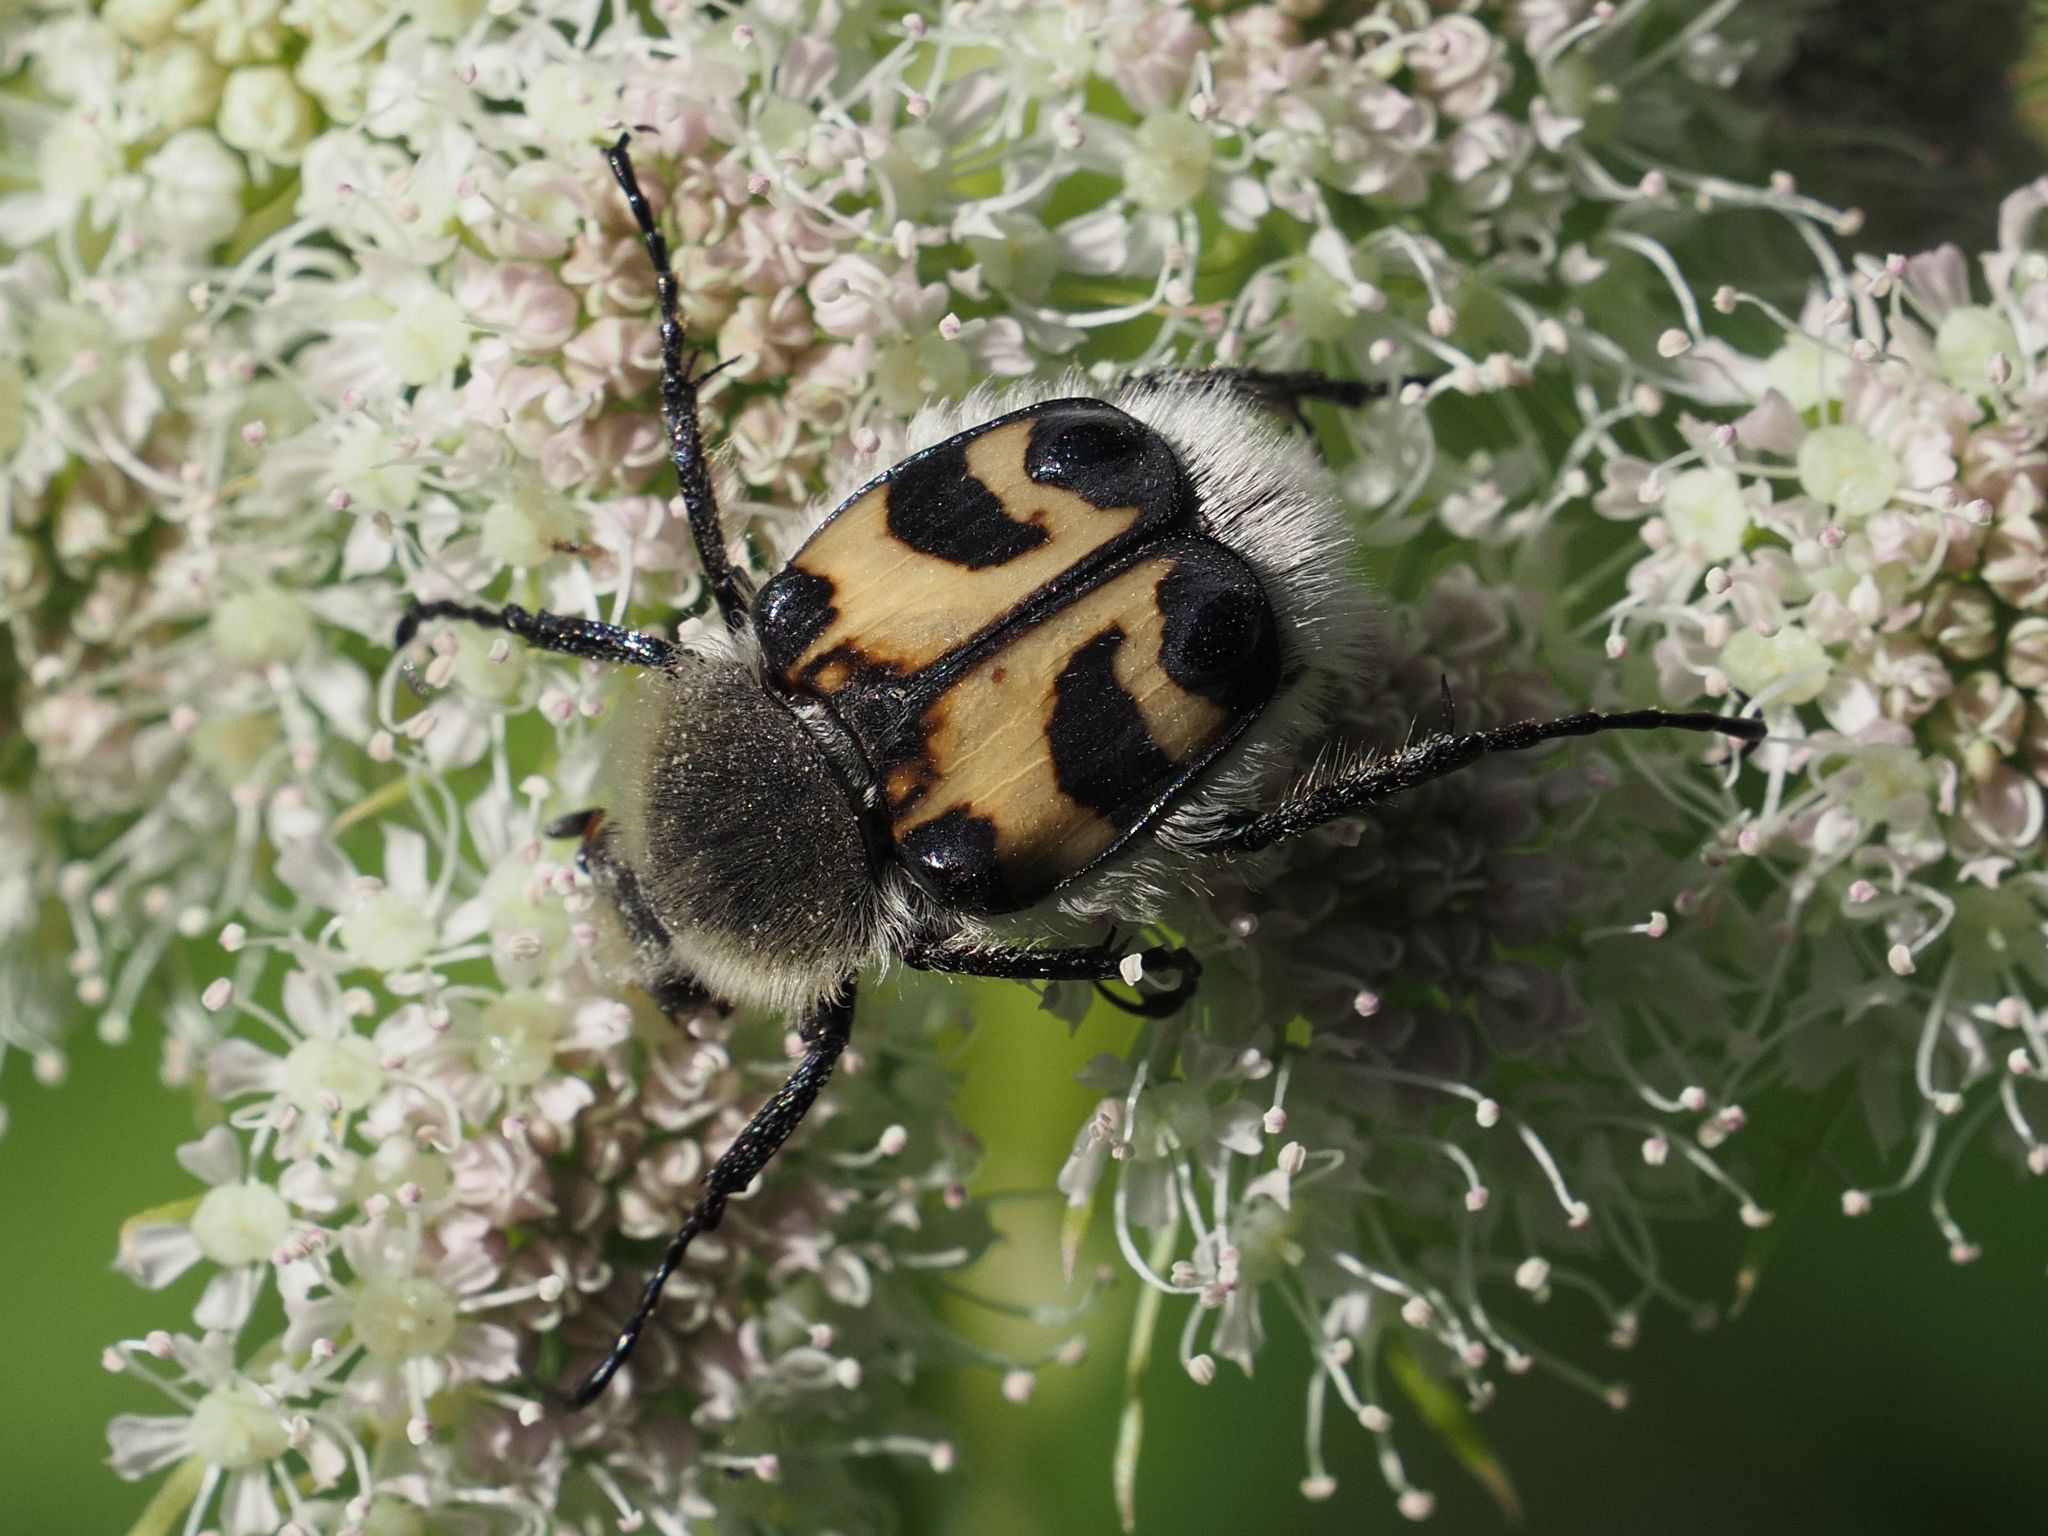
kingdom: Animalia
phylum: Arthropoda
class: Insecta
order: Coleoptera
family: Scarabaeidae
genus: Trichius
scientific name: Trichius fasciatus
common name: Bee beetle
